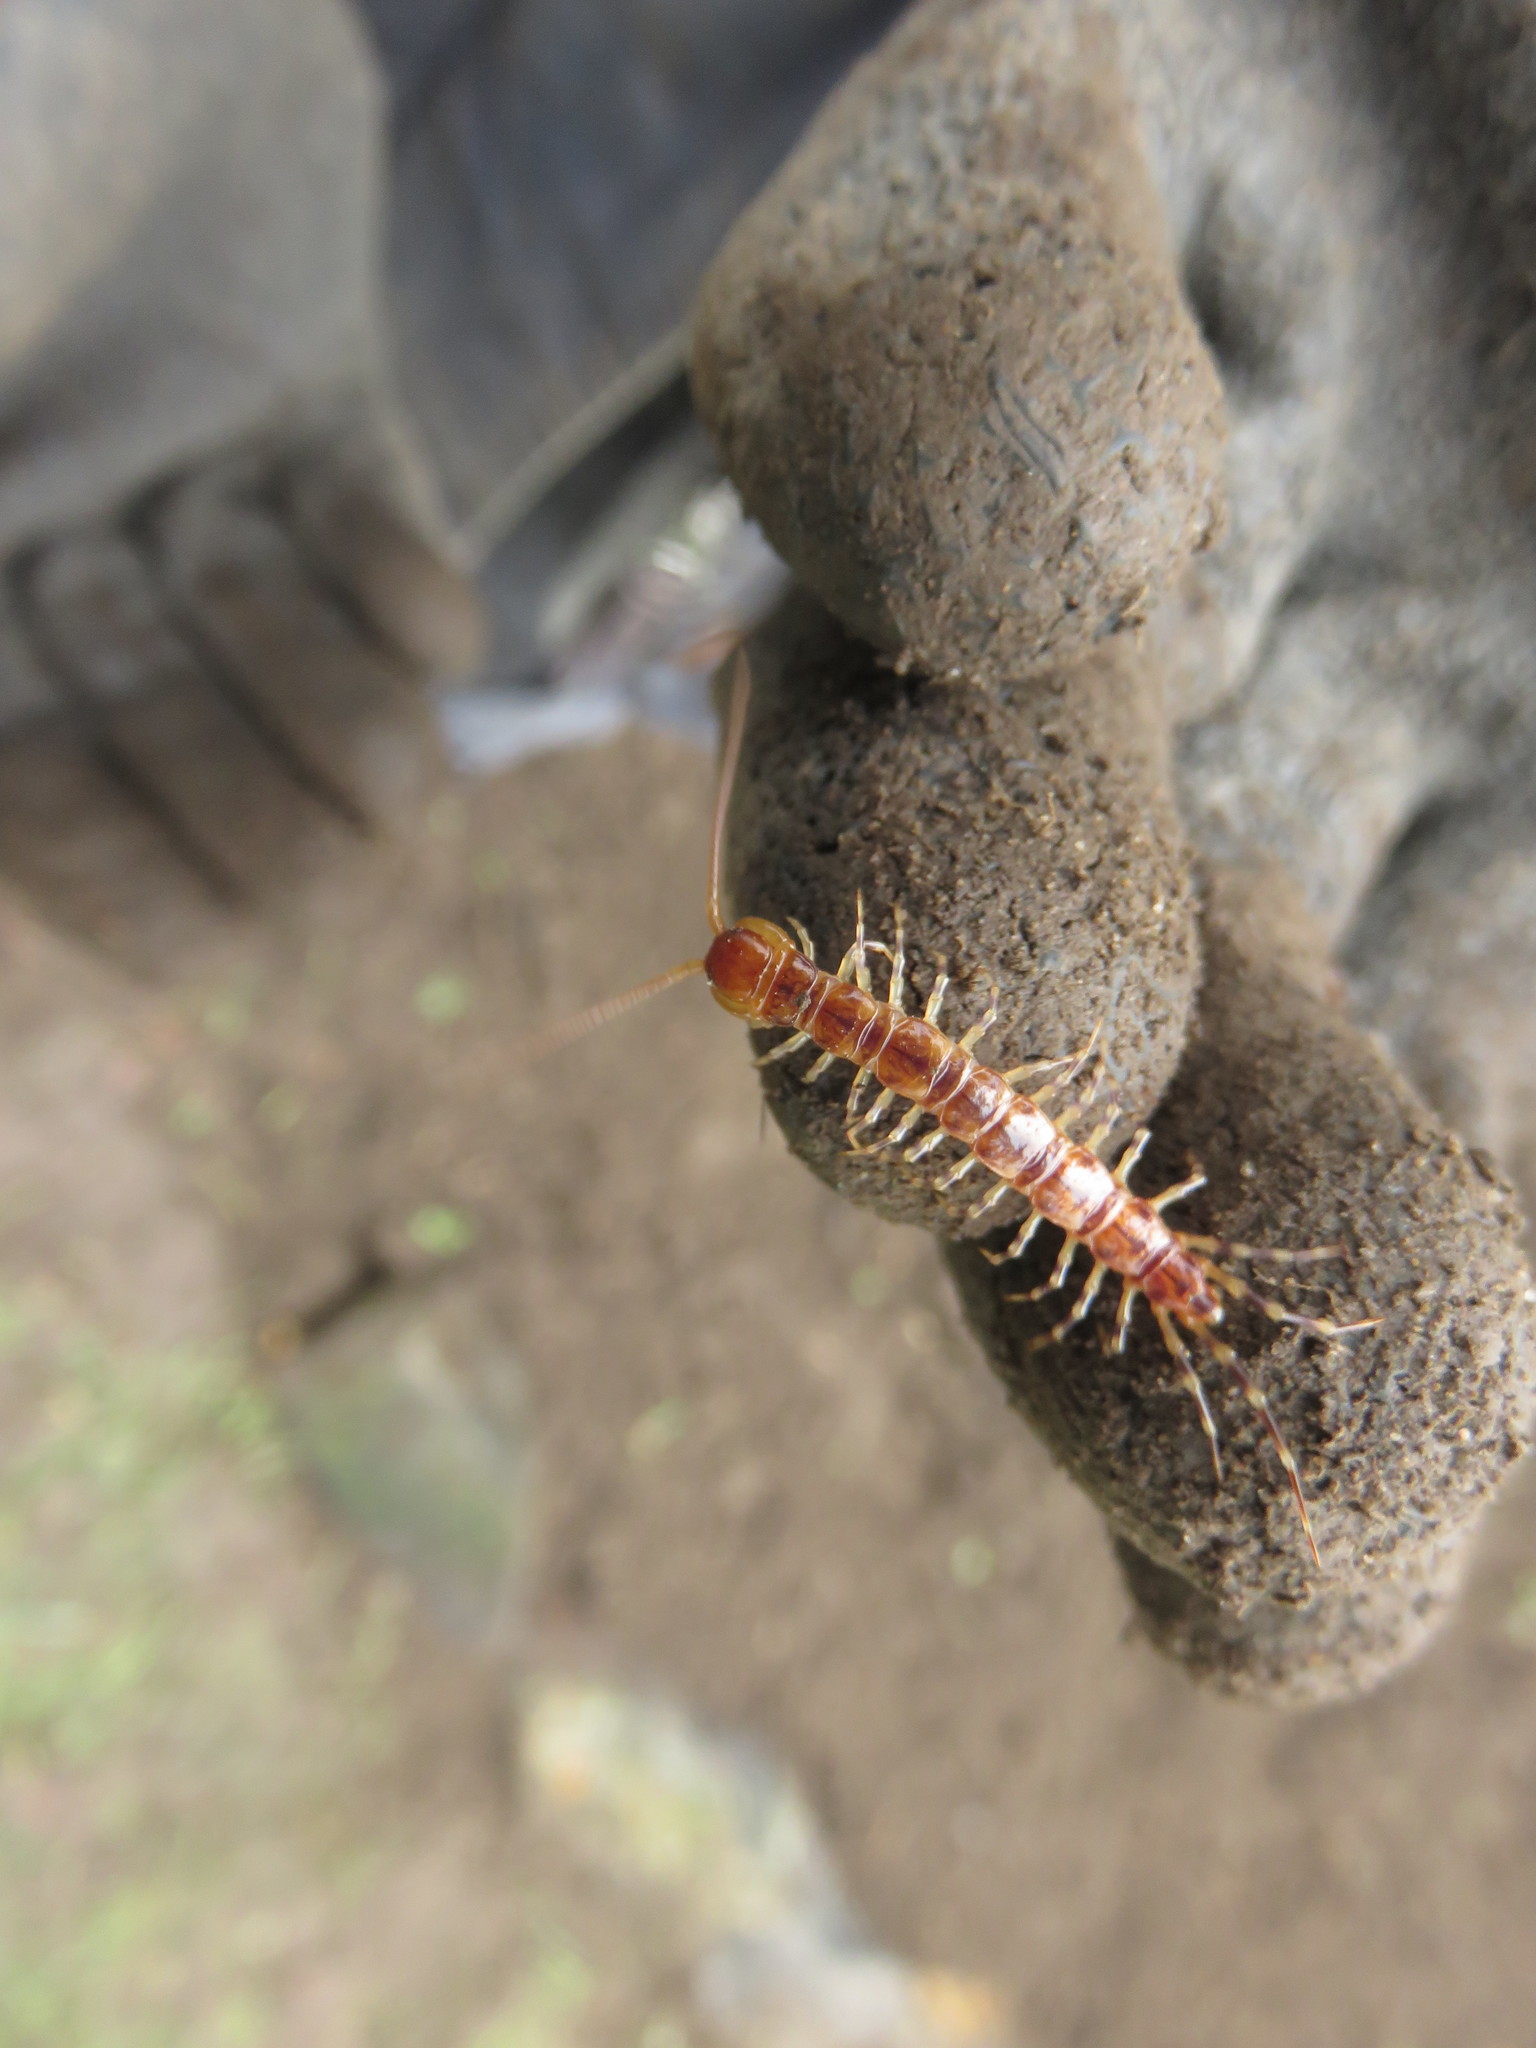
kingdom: Animalia
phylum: Arthropoda
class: Chilopoda
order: Lithobiomorpha
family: Lithobiidae
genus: Lithobius
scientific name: Lithobius variegatus
